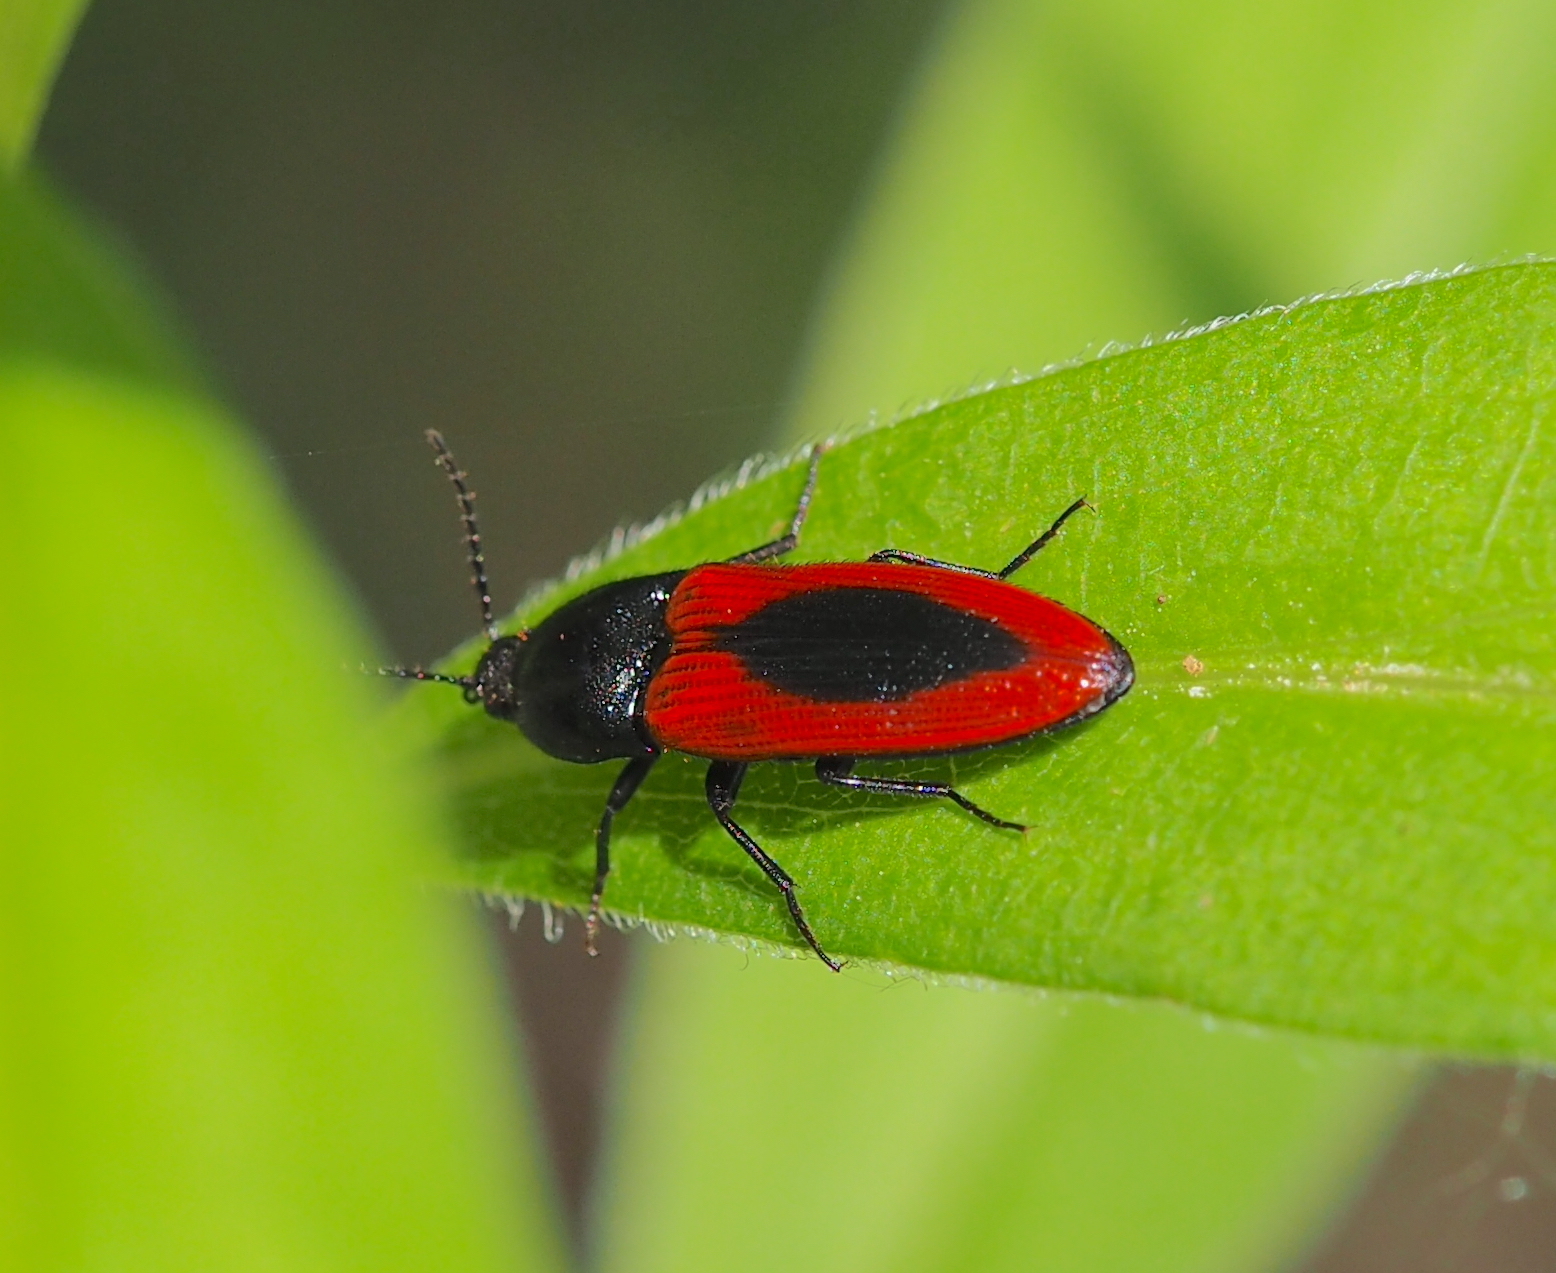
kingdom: Animalia
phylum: Arthropoda
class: Insecta
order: Coleoptera
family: Elateridae
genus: Ampedus
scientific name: Ampedus sanguinolentus
